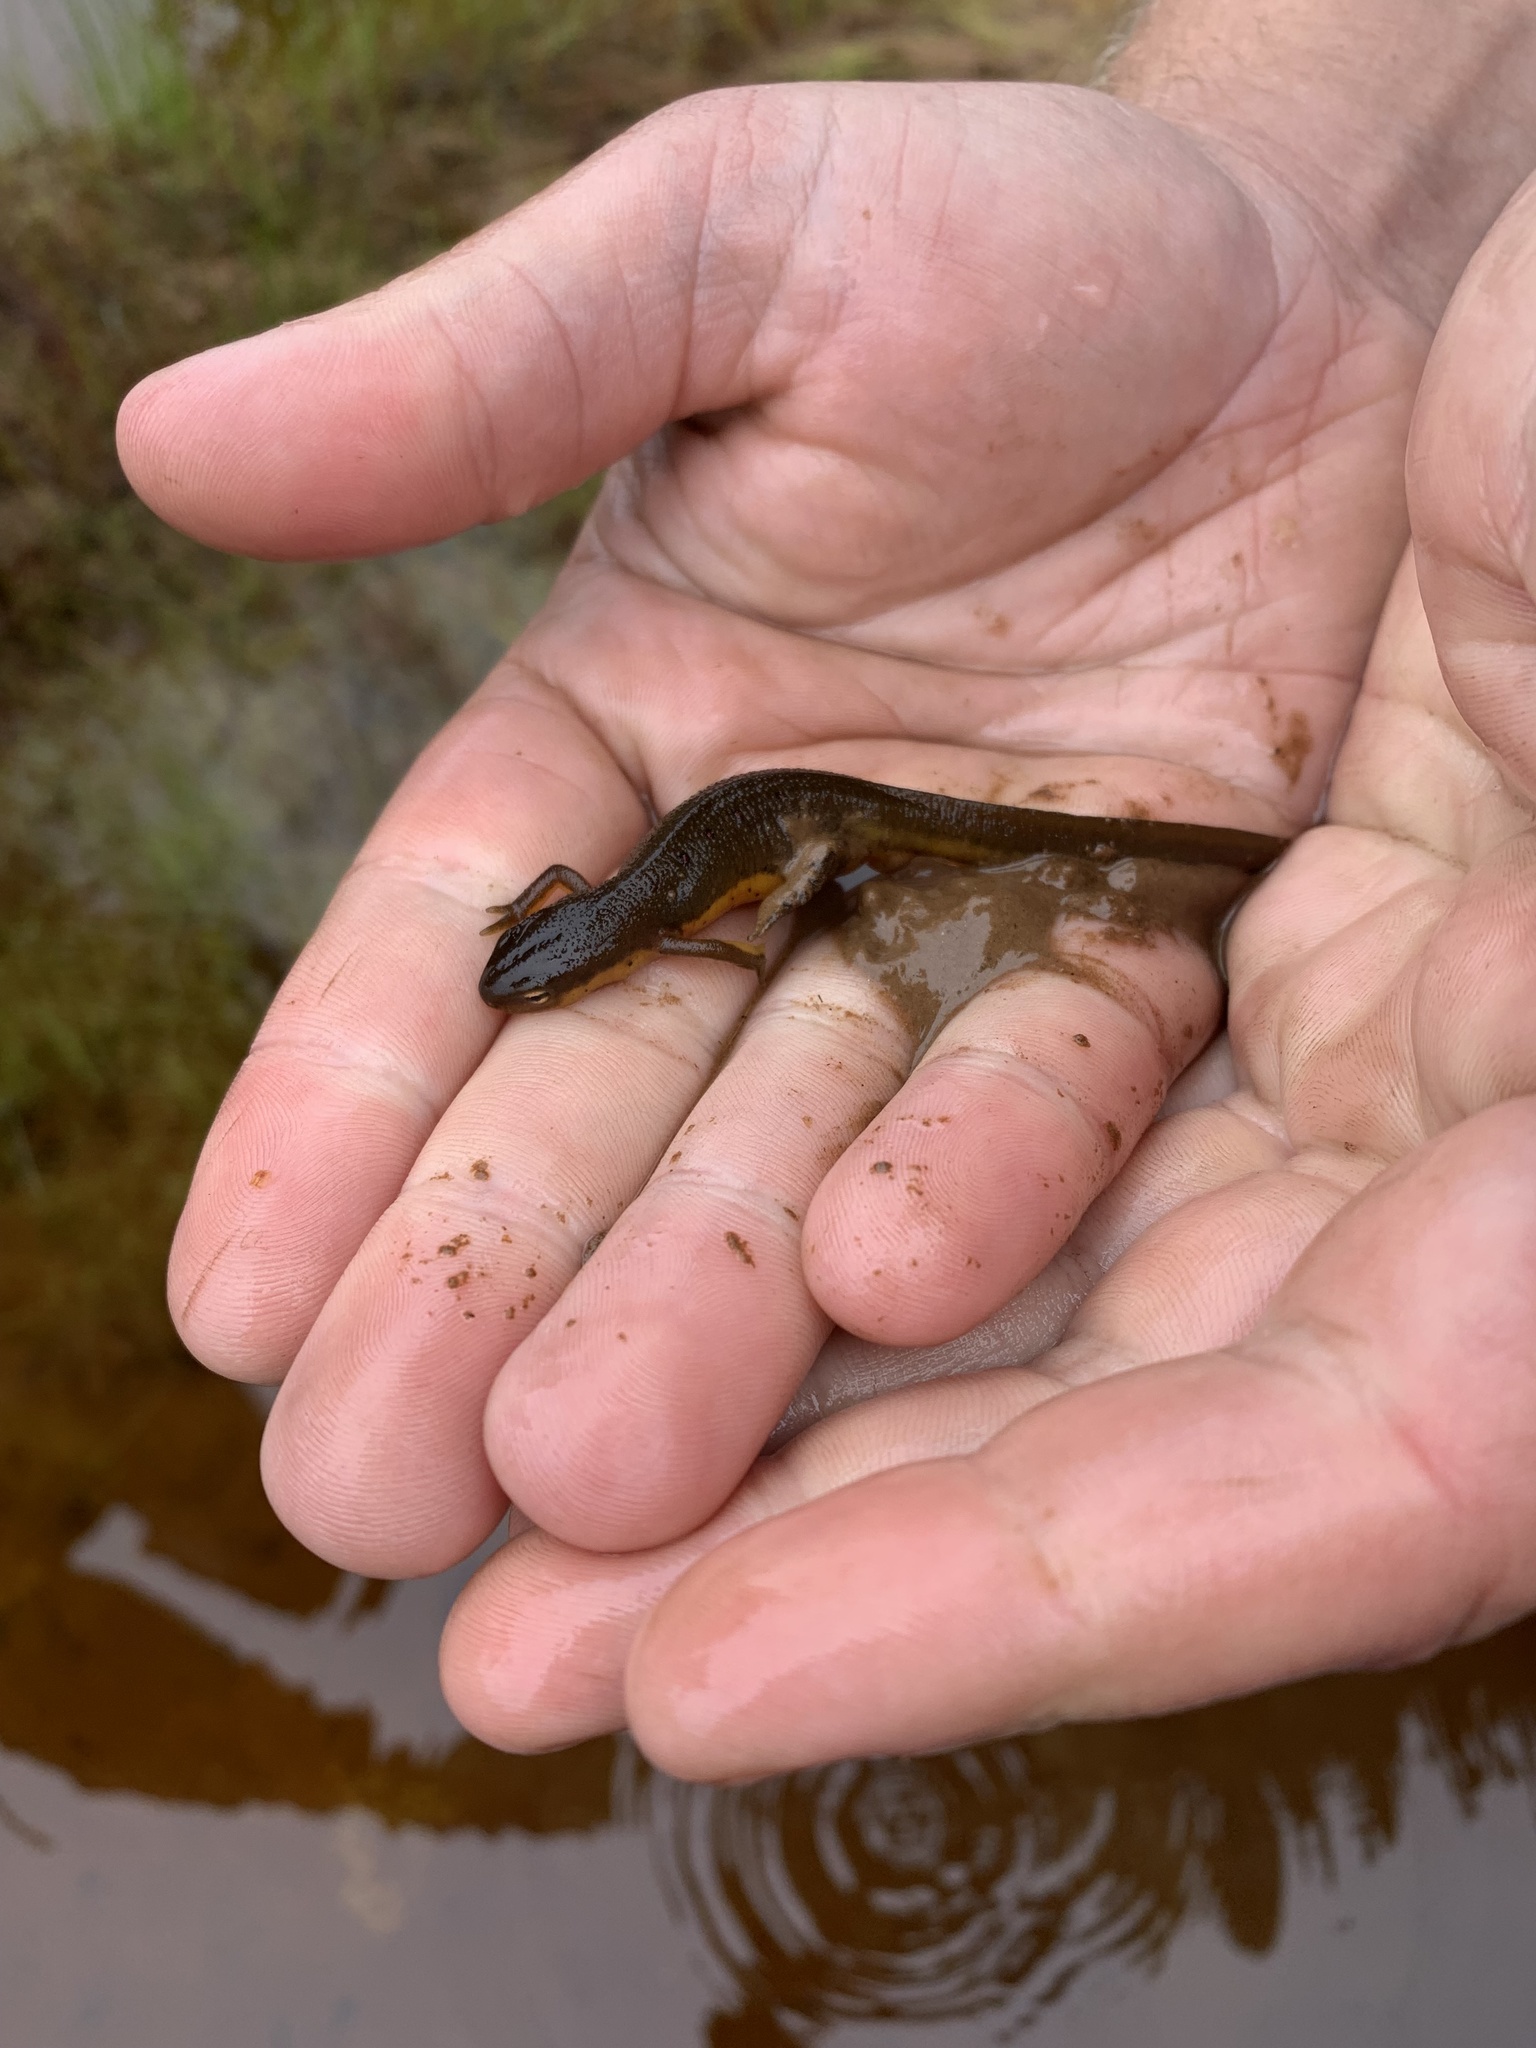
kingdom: Animalia
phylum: Chordata
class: Amphibia
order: Caudata
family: Salamandridae
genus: Notophthalmus
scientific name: Notophthalmus viridescens
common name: Eastern newt
